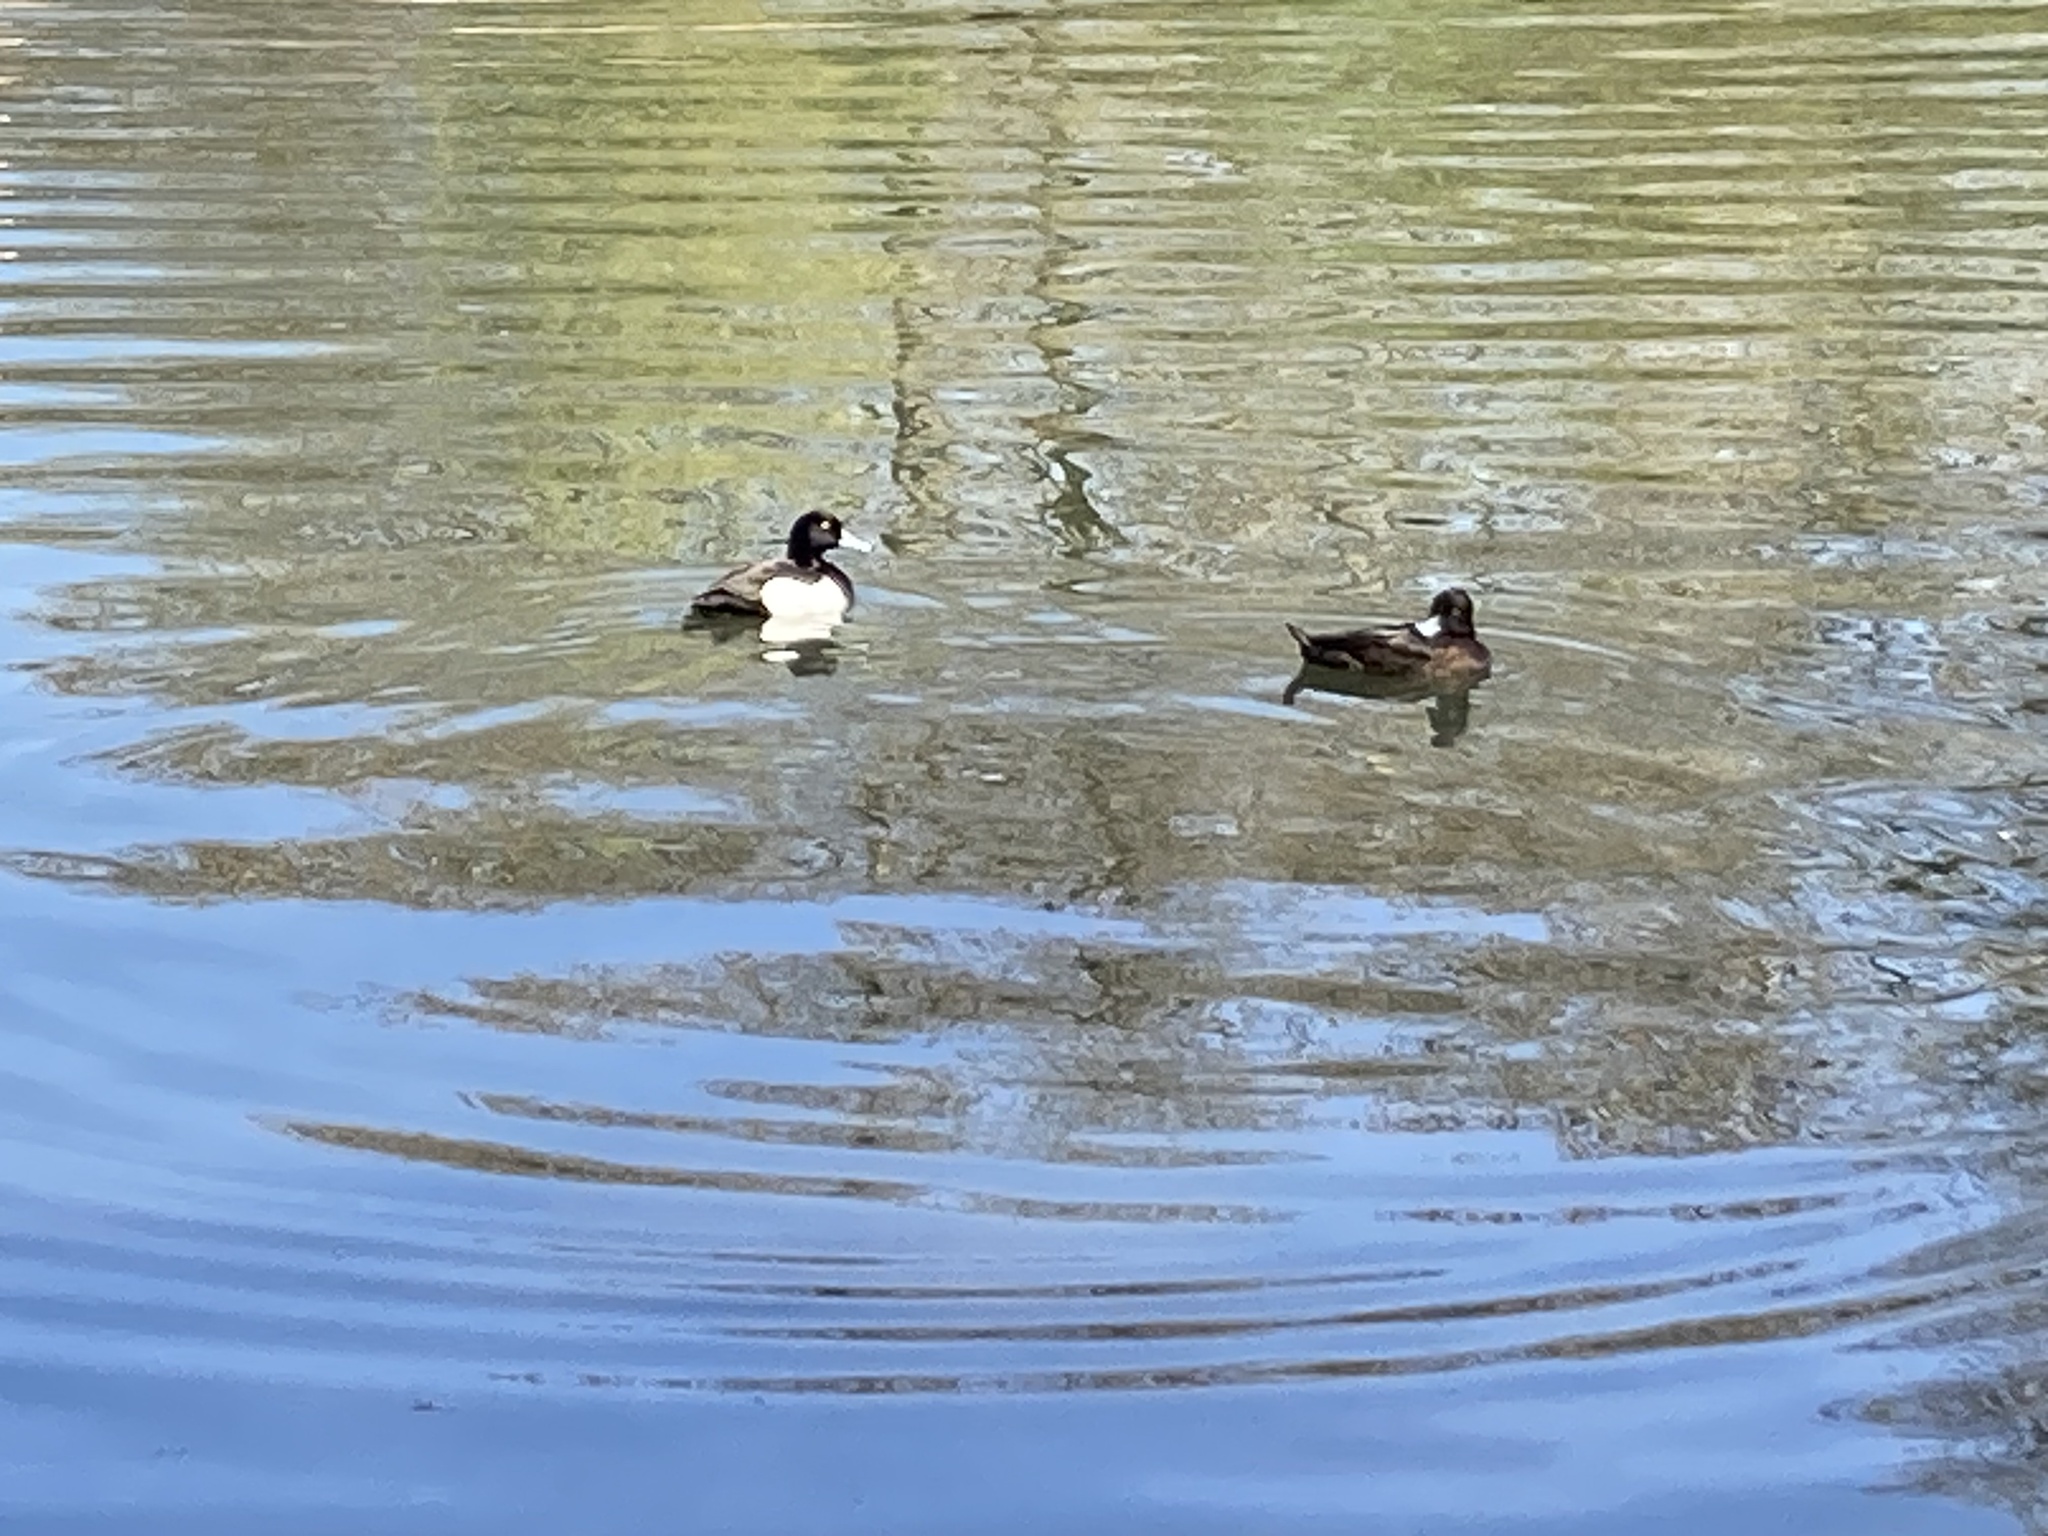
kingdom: Animalia
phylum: Chordata
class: Aves
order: Anseriformes
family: Anatidae
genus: Aythya
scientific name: Aythya fuligula
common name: Tufted duck
